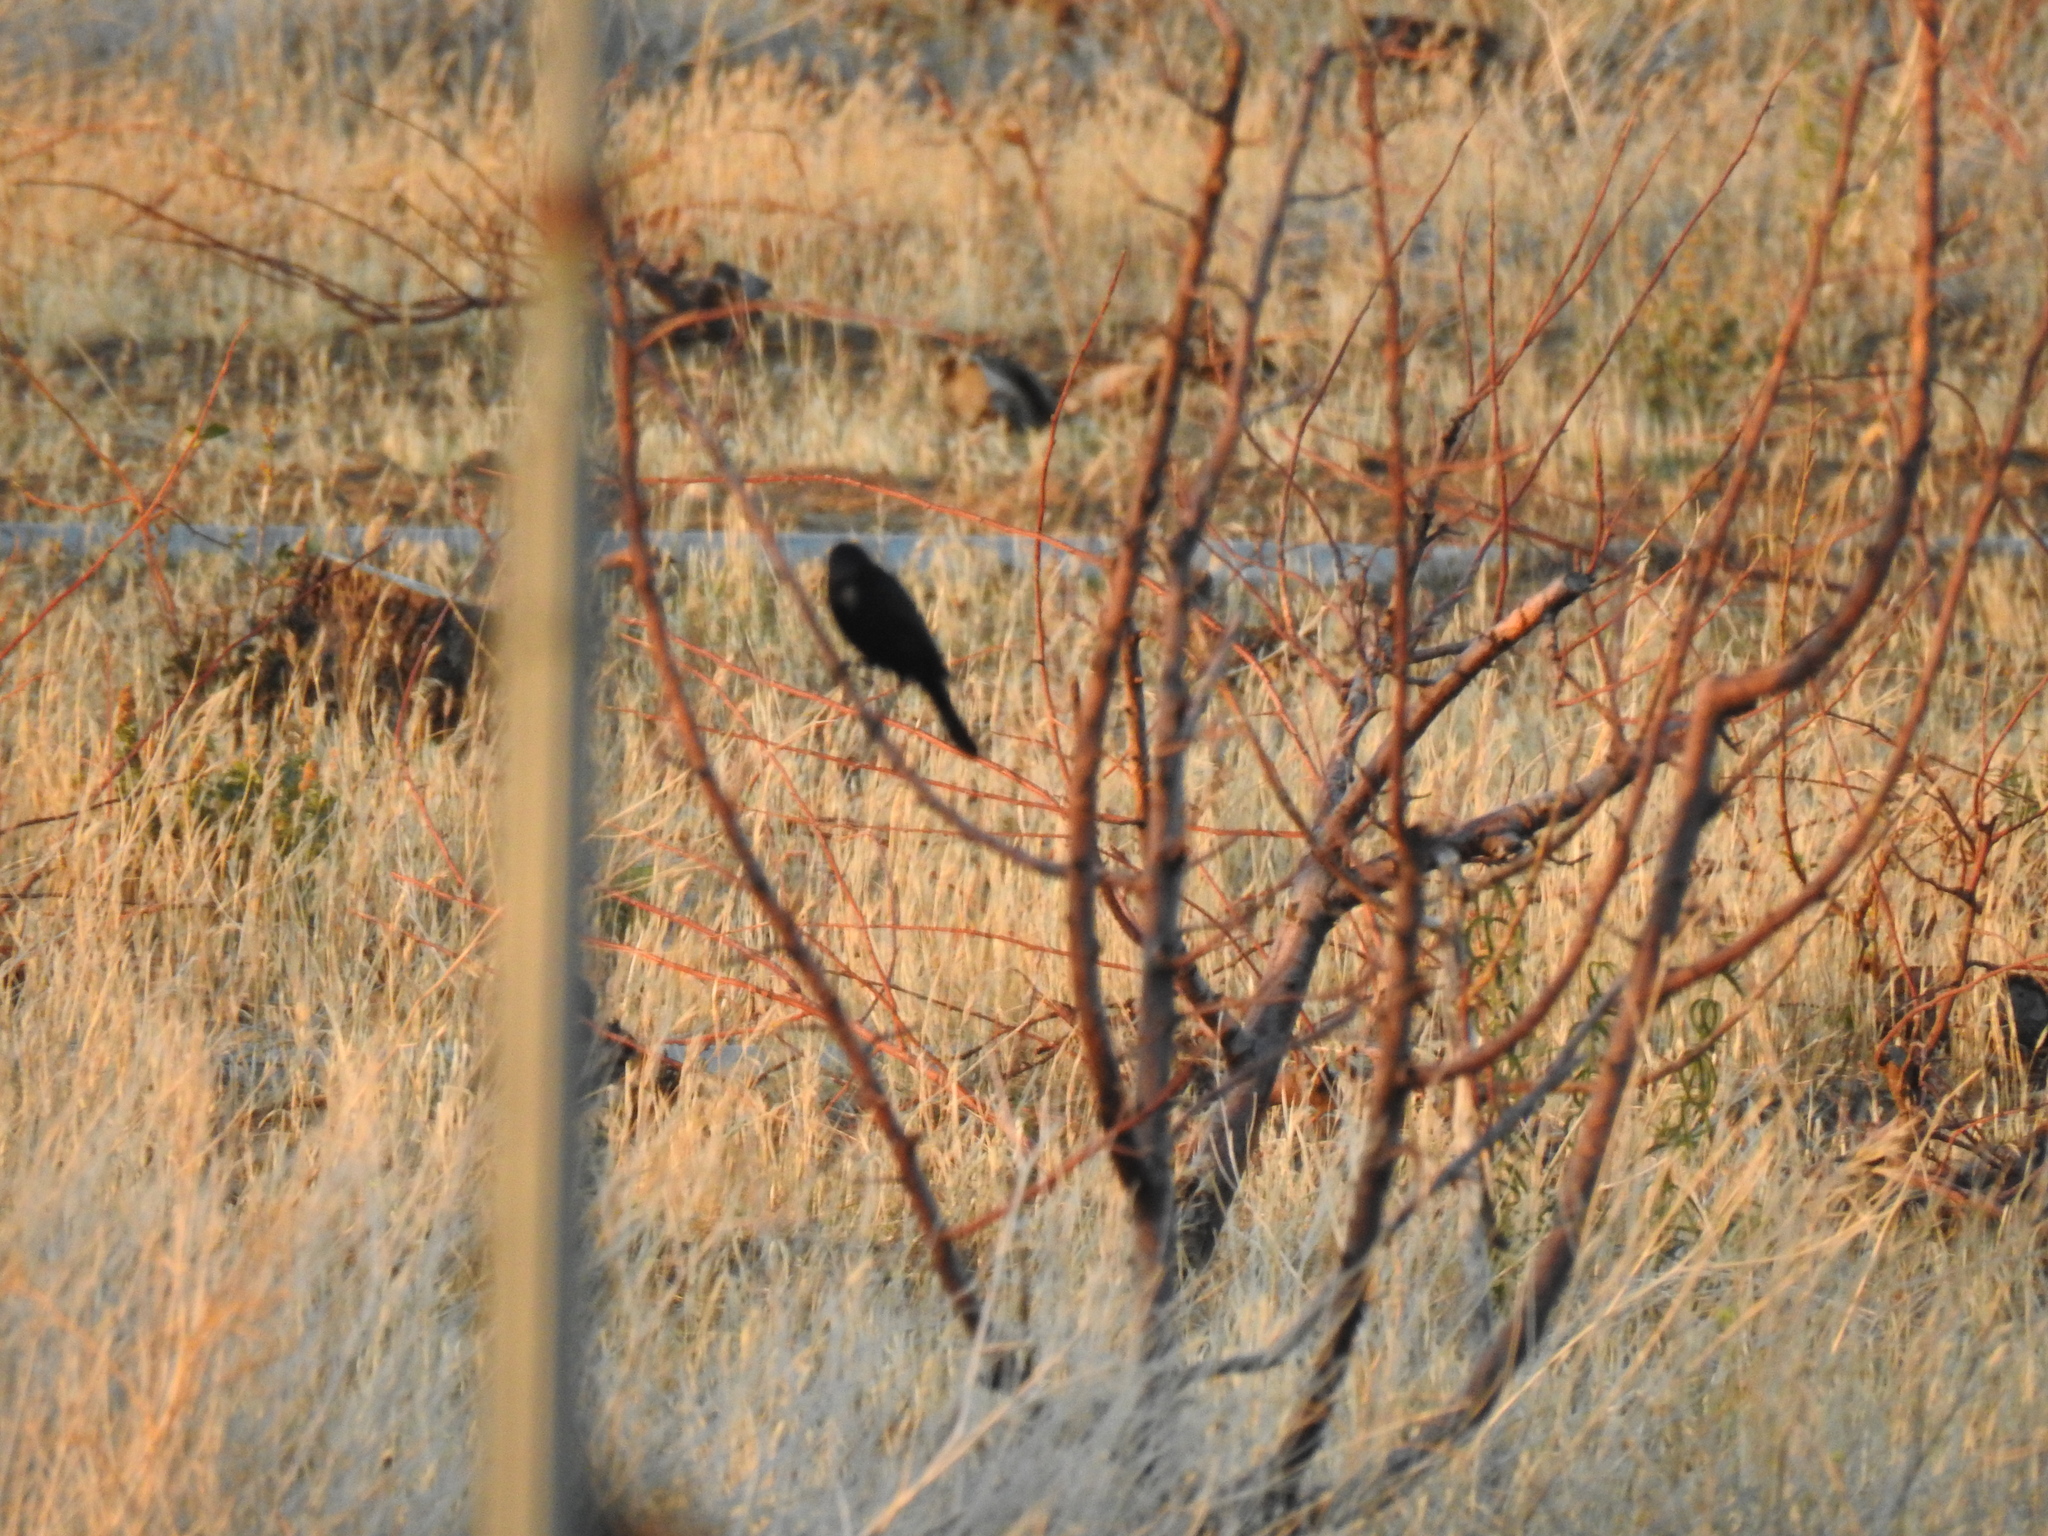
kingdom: Animalia
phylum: Chordata
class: Aves
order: Passeriformes
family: Icteridae
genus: Euphagus
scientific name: Euphagus cyanocephalus
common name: Brewer's blackbird
